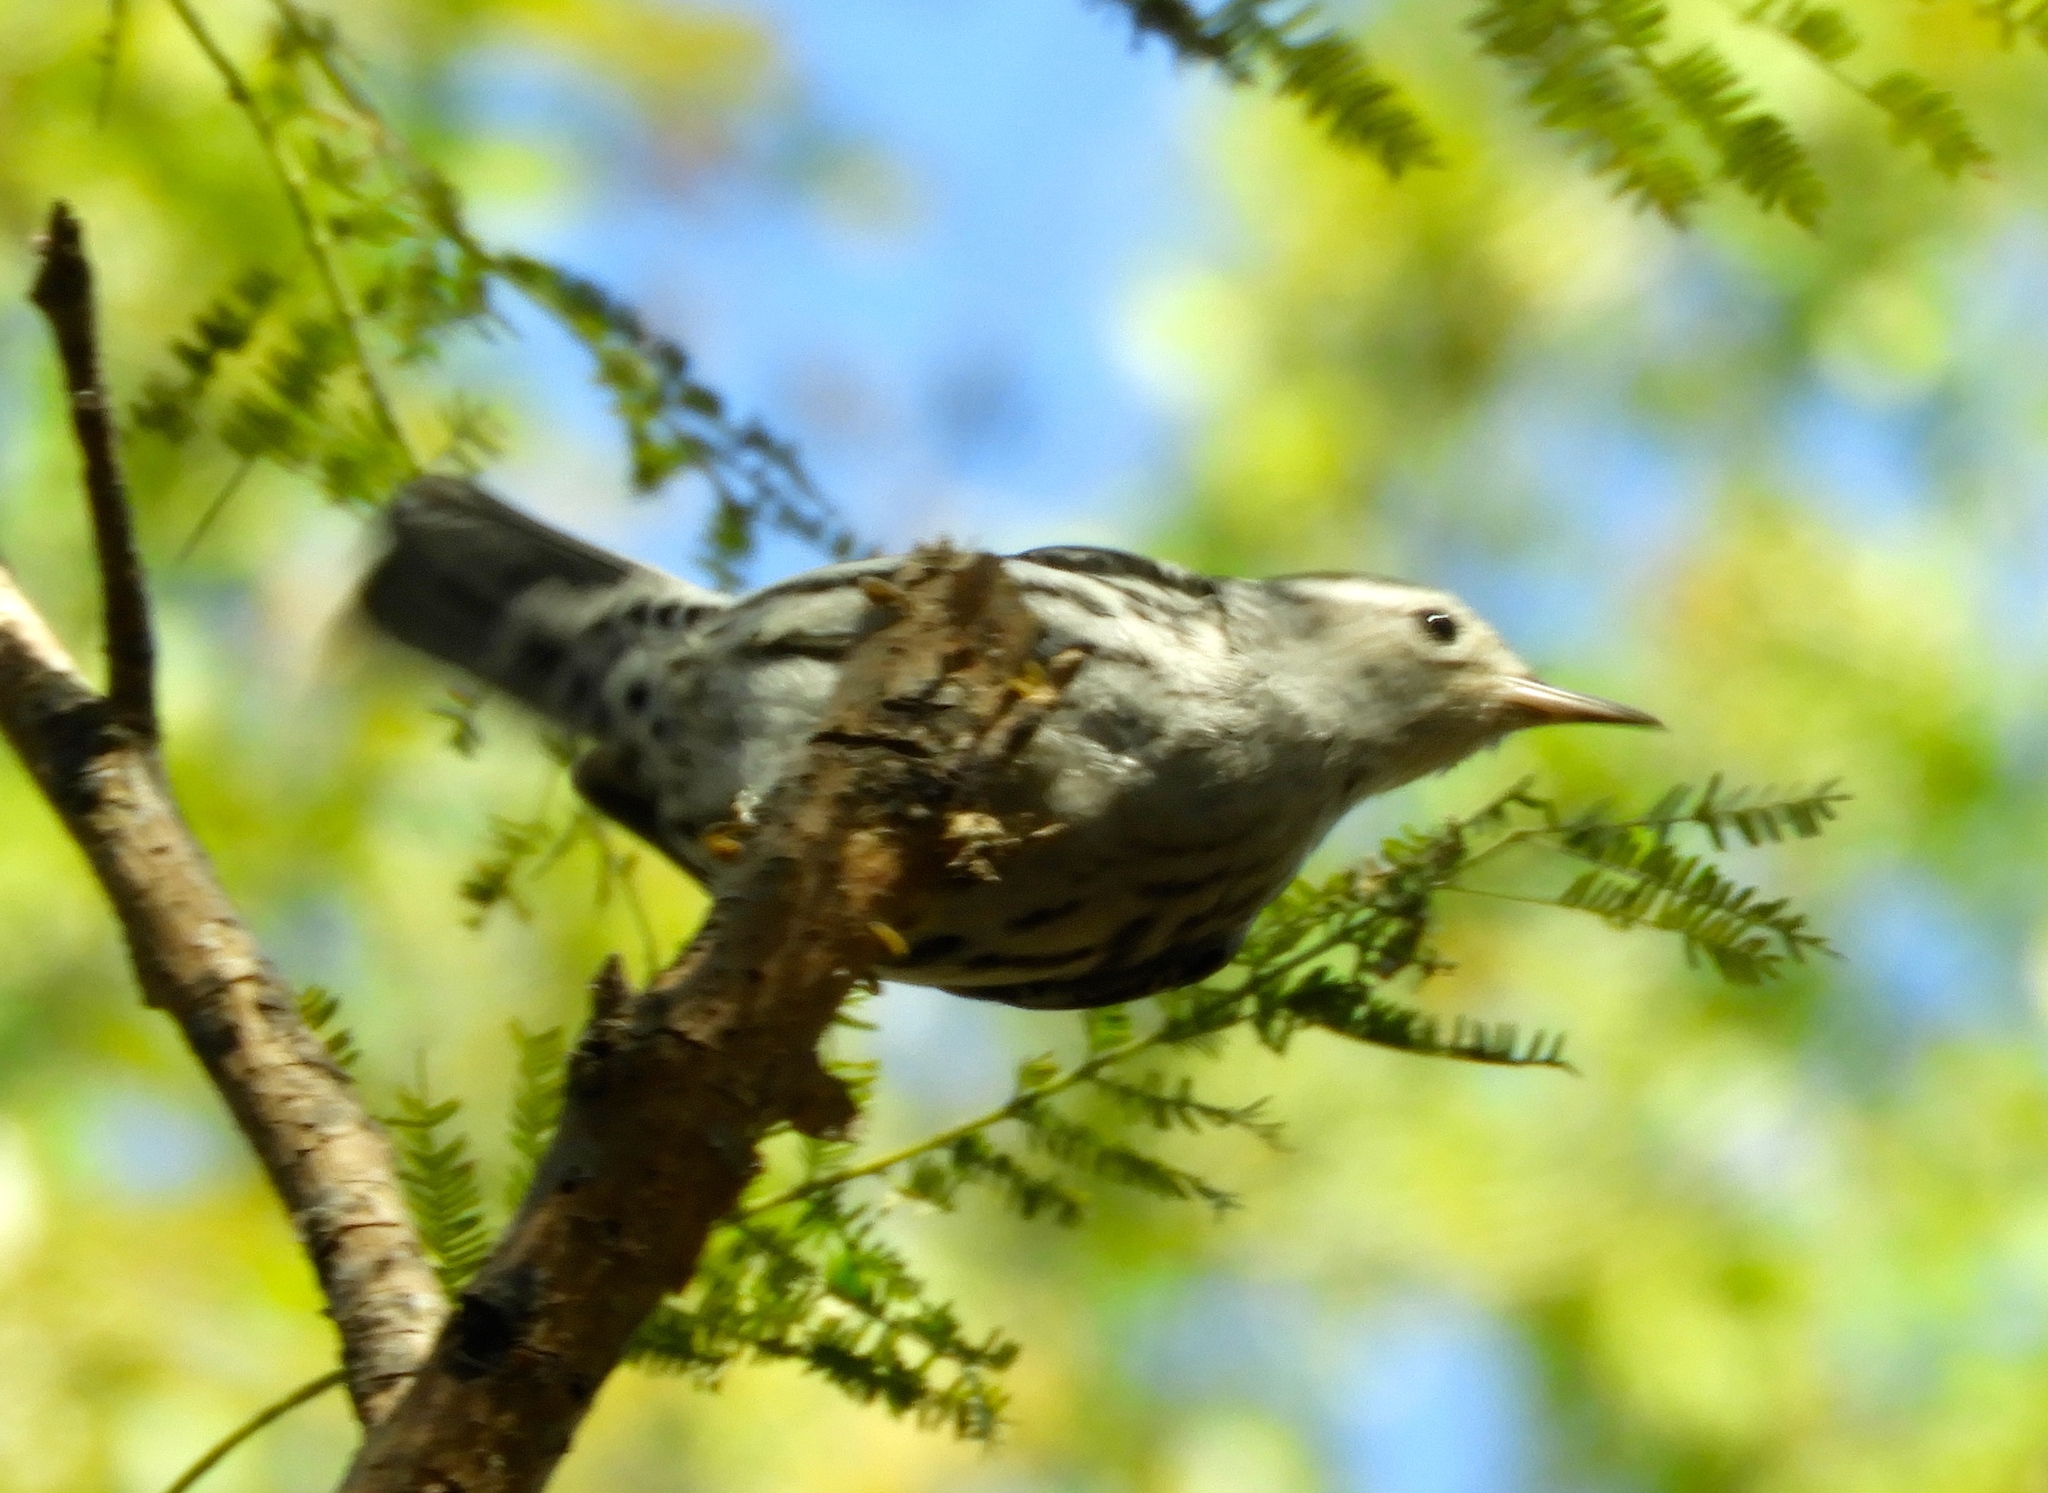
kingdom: Animalia
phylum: Chordata
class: Aves
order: Passeriformes
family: Parulidae
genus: Mniotilta
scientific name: Mniotilta varia
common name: Black-and-white warbler
